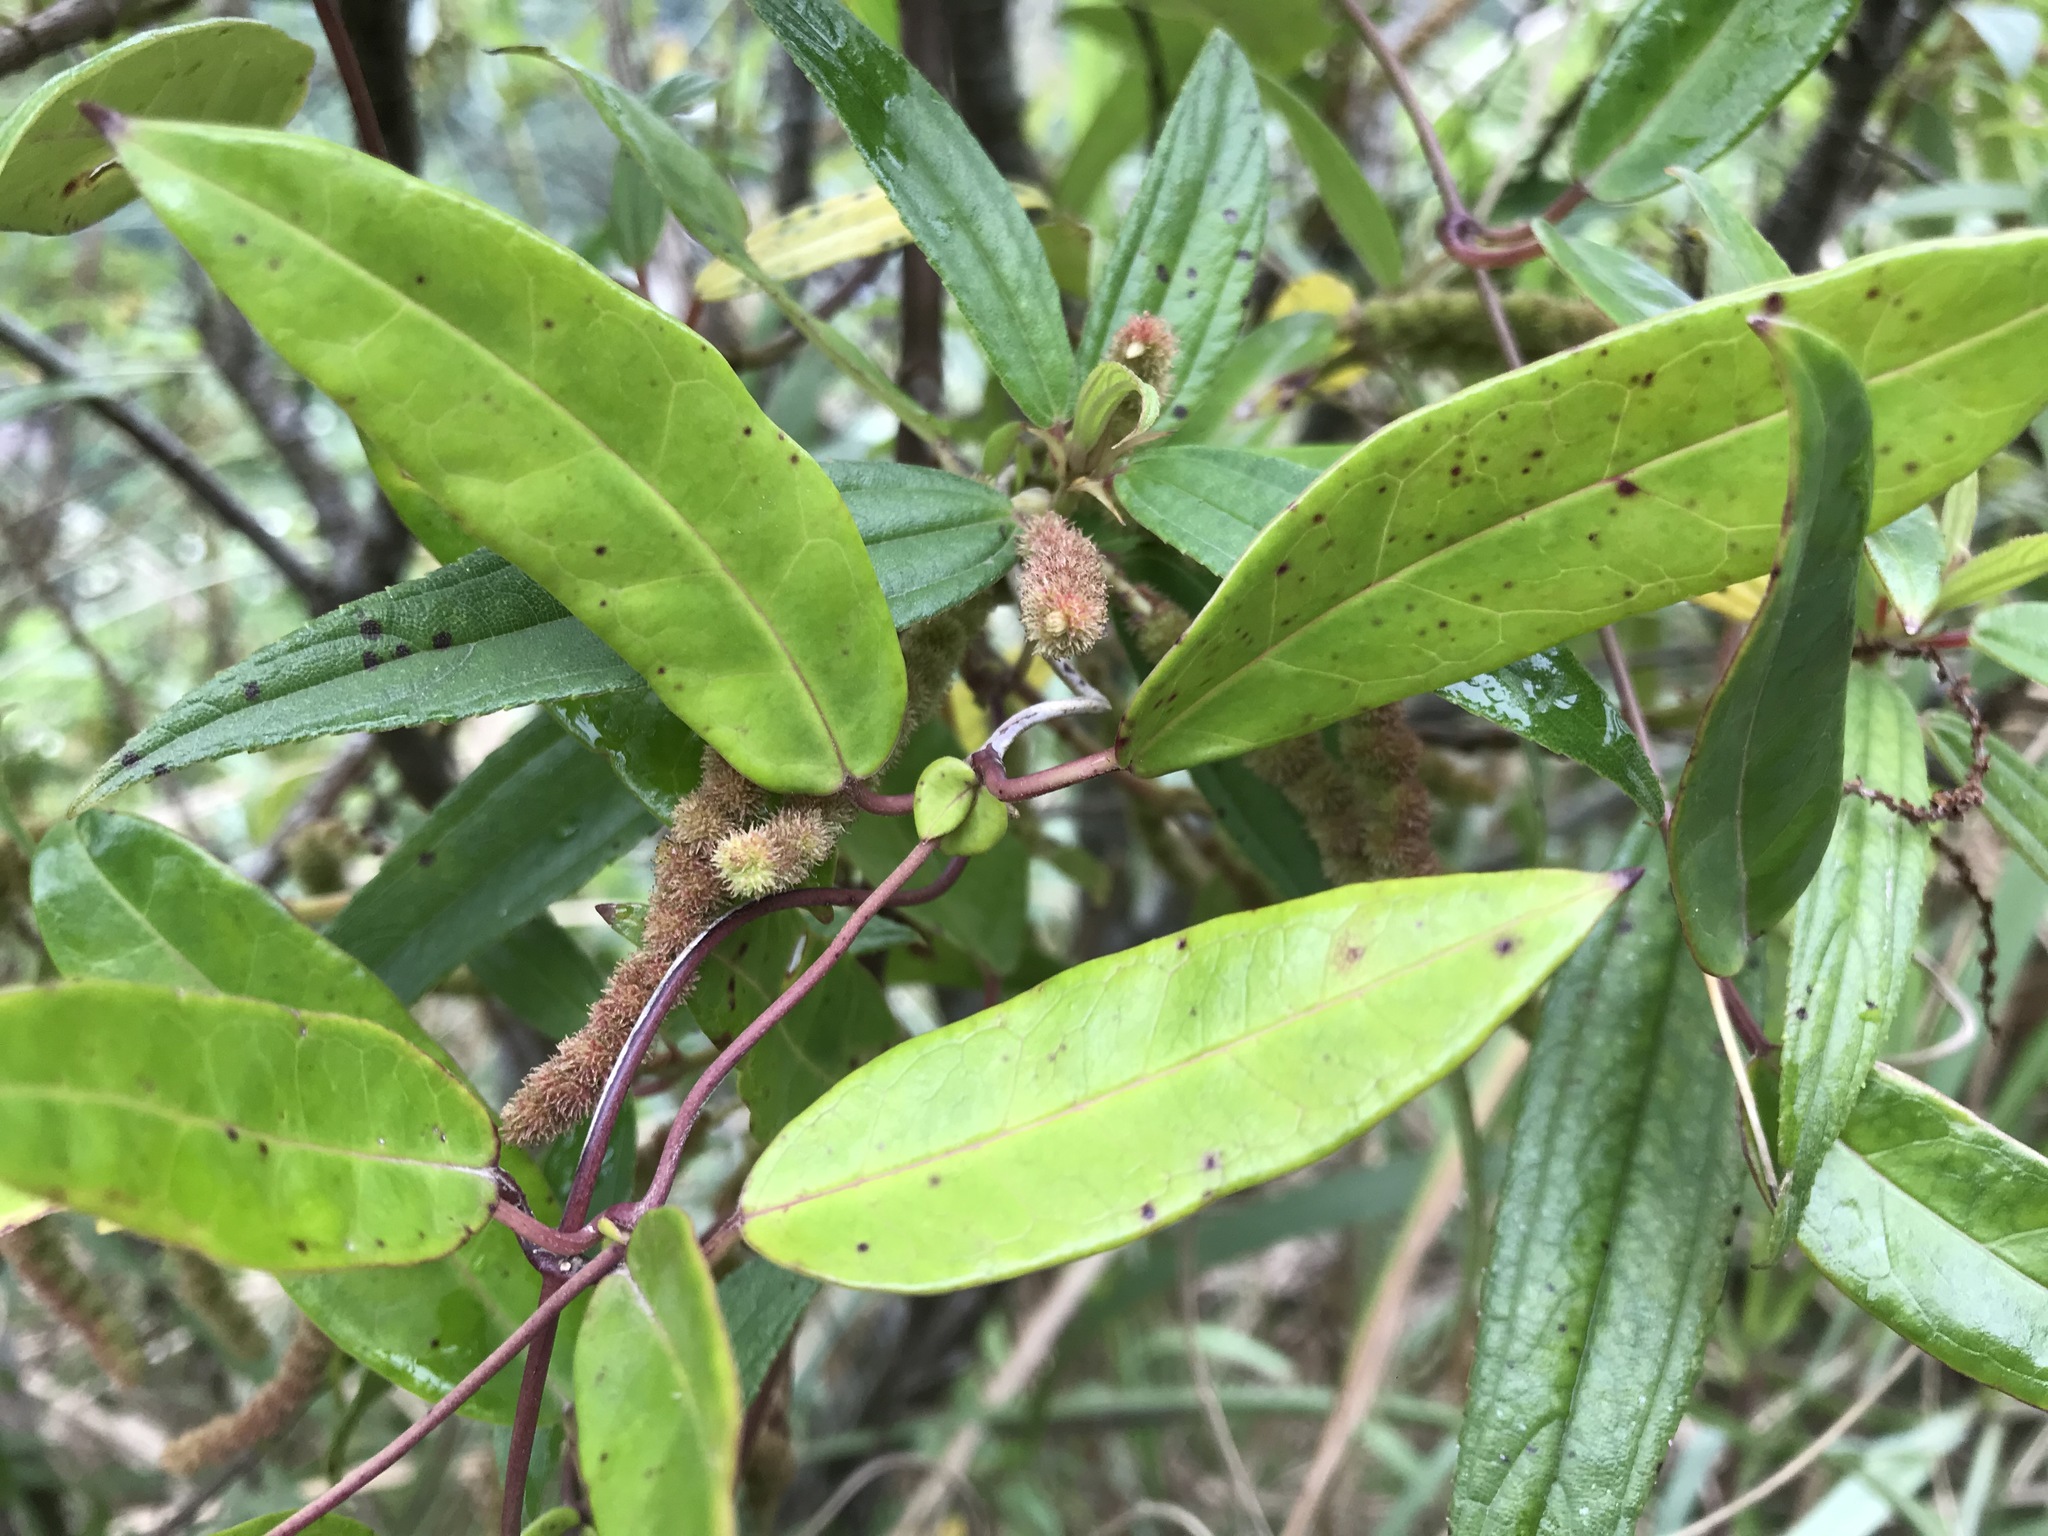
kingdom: Plantae
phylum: Tracheophyta
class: Magnoliopsida
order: Gentianales
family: Apocynaceae
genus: Anodendron
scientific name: Anodendron affine
